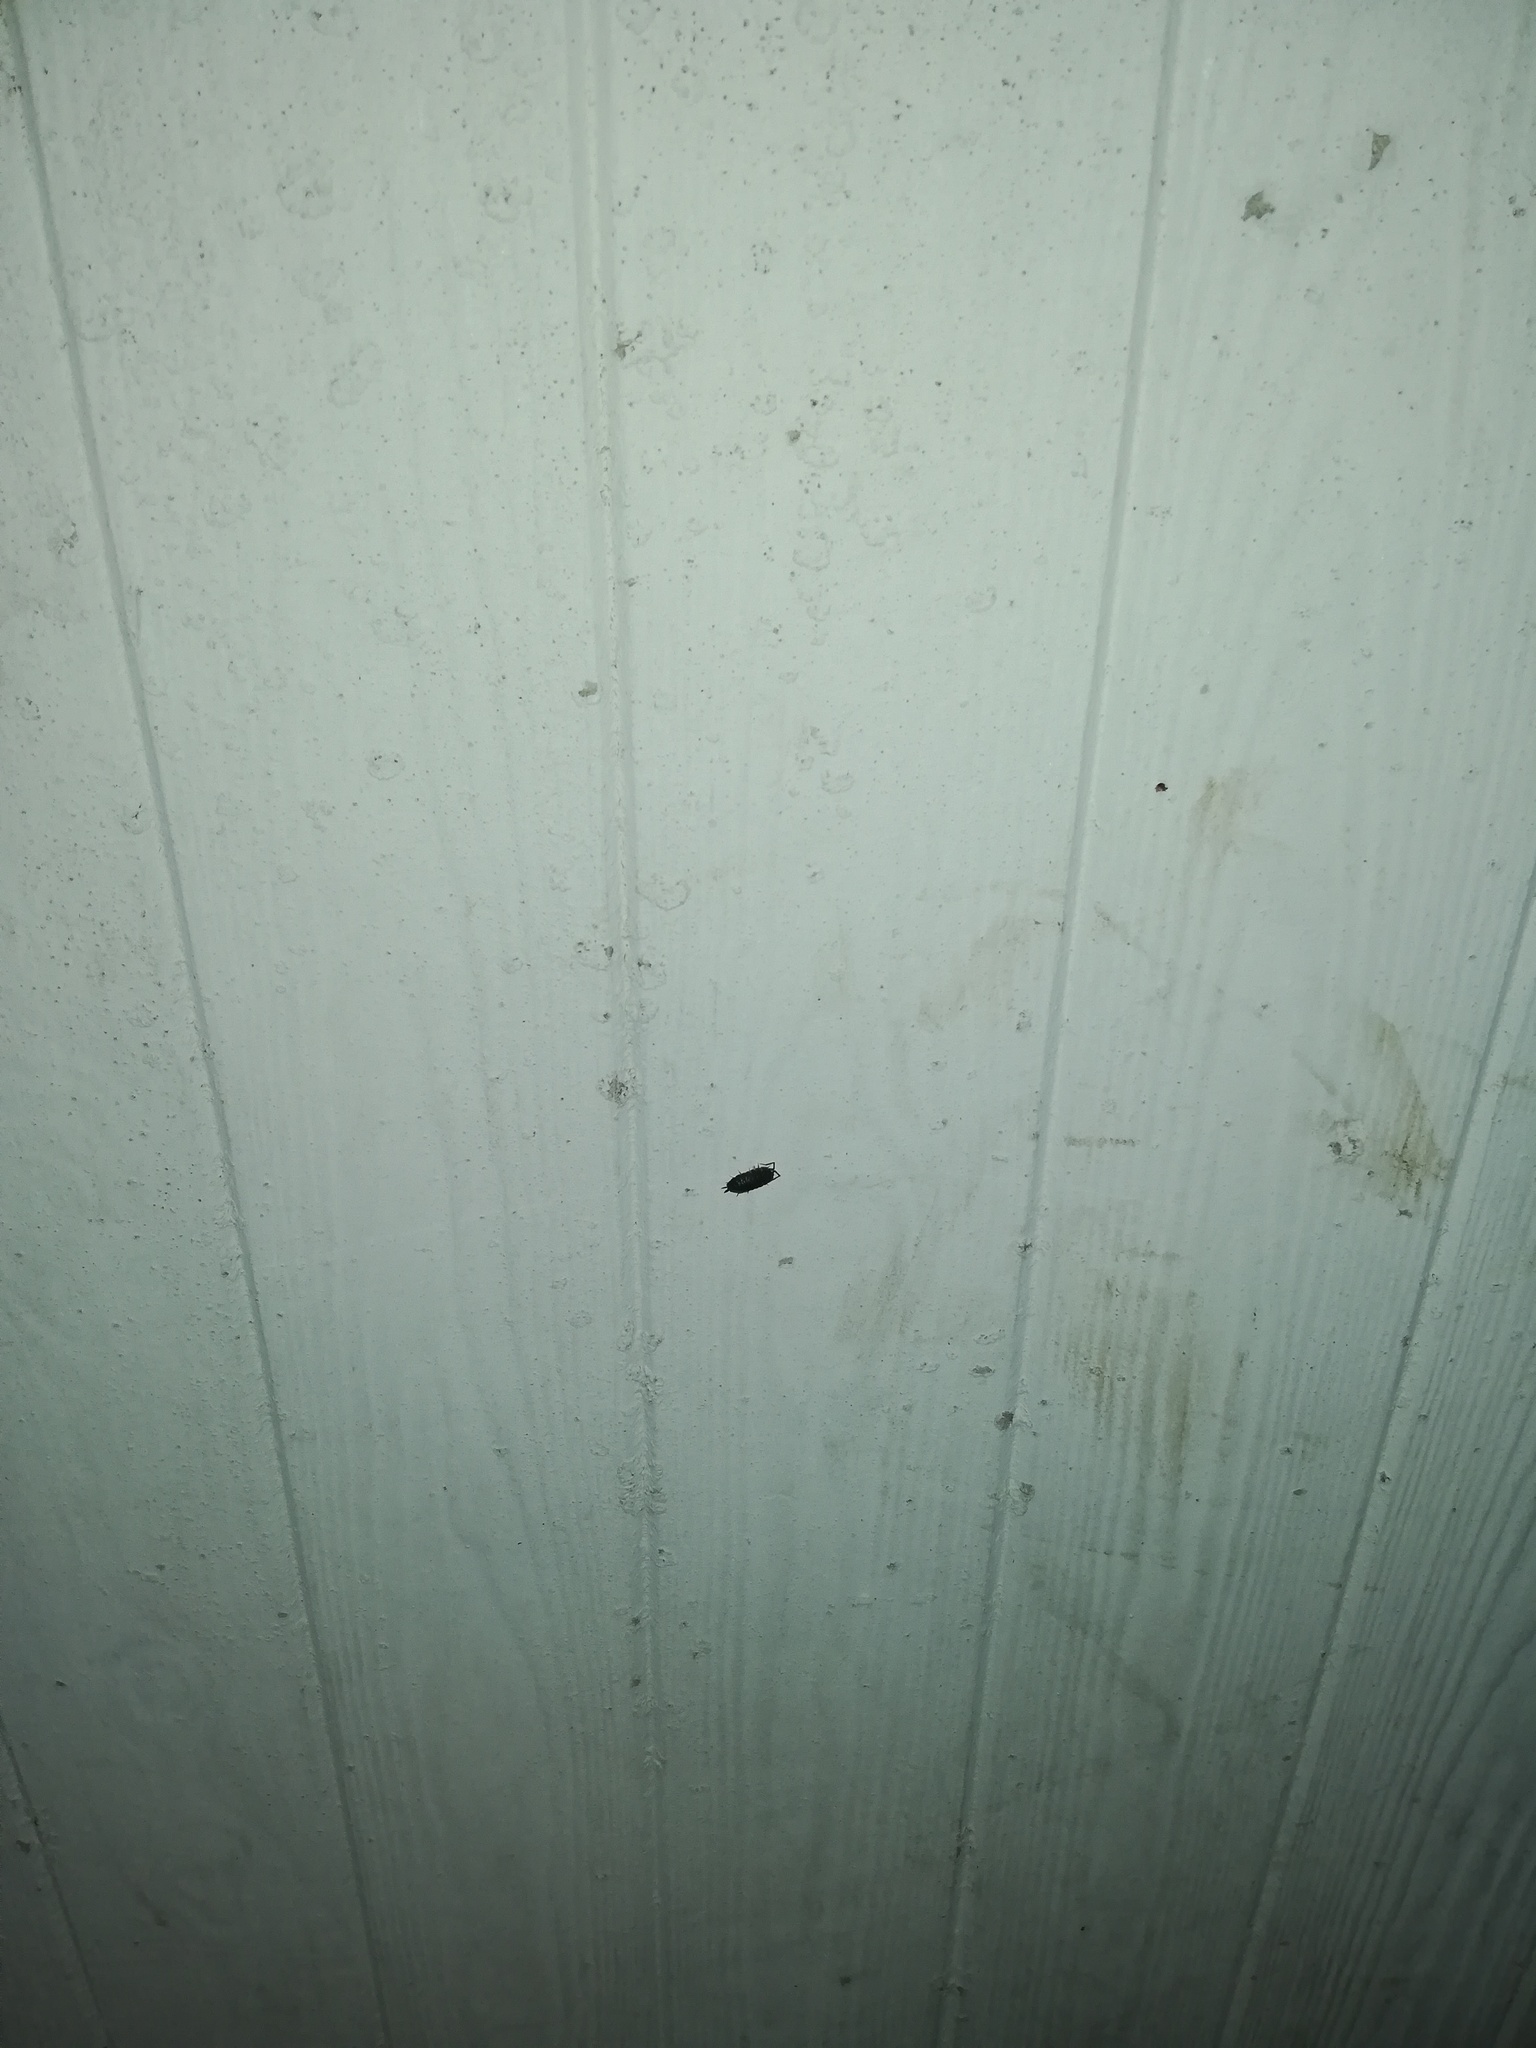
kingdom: Animalia
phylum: Arthropoda
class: Malacostraca
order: Isopoda
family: Porcellionidae
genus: Porcellio
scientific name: Porcellio scaber
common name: Common rough woodlouse
